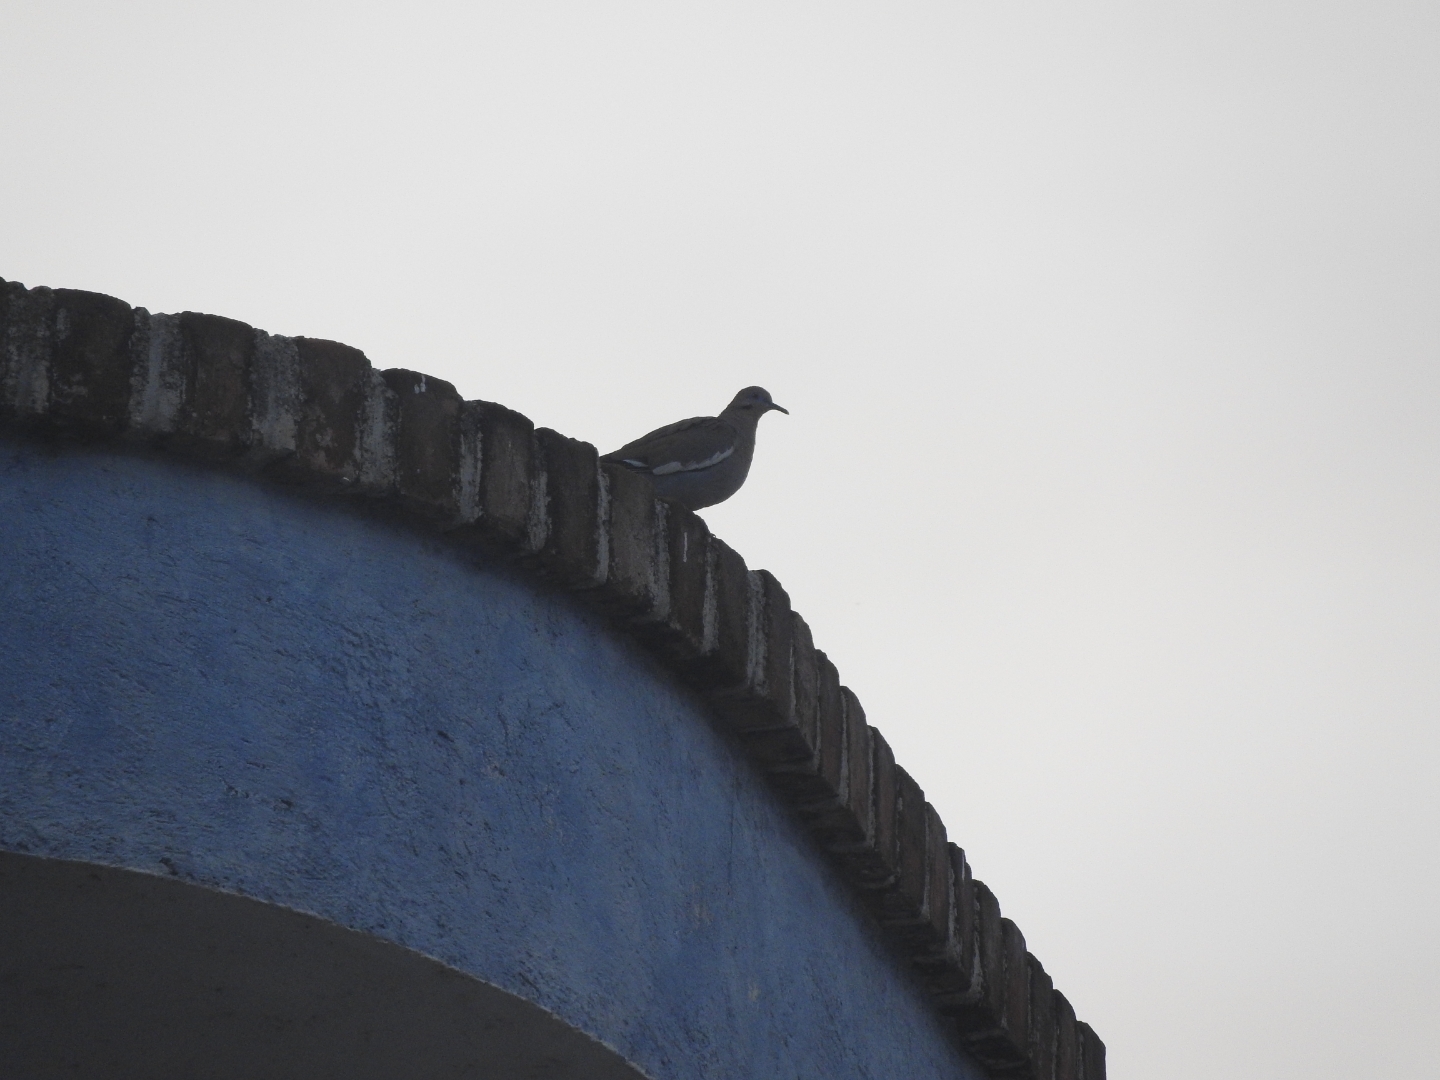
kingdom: Animalia
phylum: Chordata
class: Aves
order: Columbiformes
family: Columbidae
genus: Zenaida
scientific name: Zenaida asiatica
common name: White-winged dove
